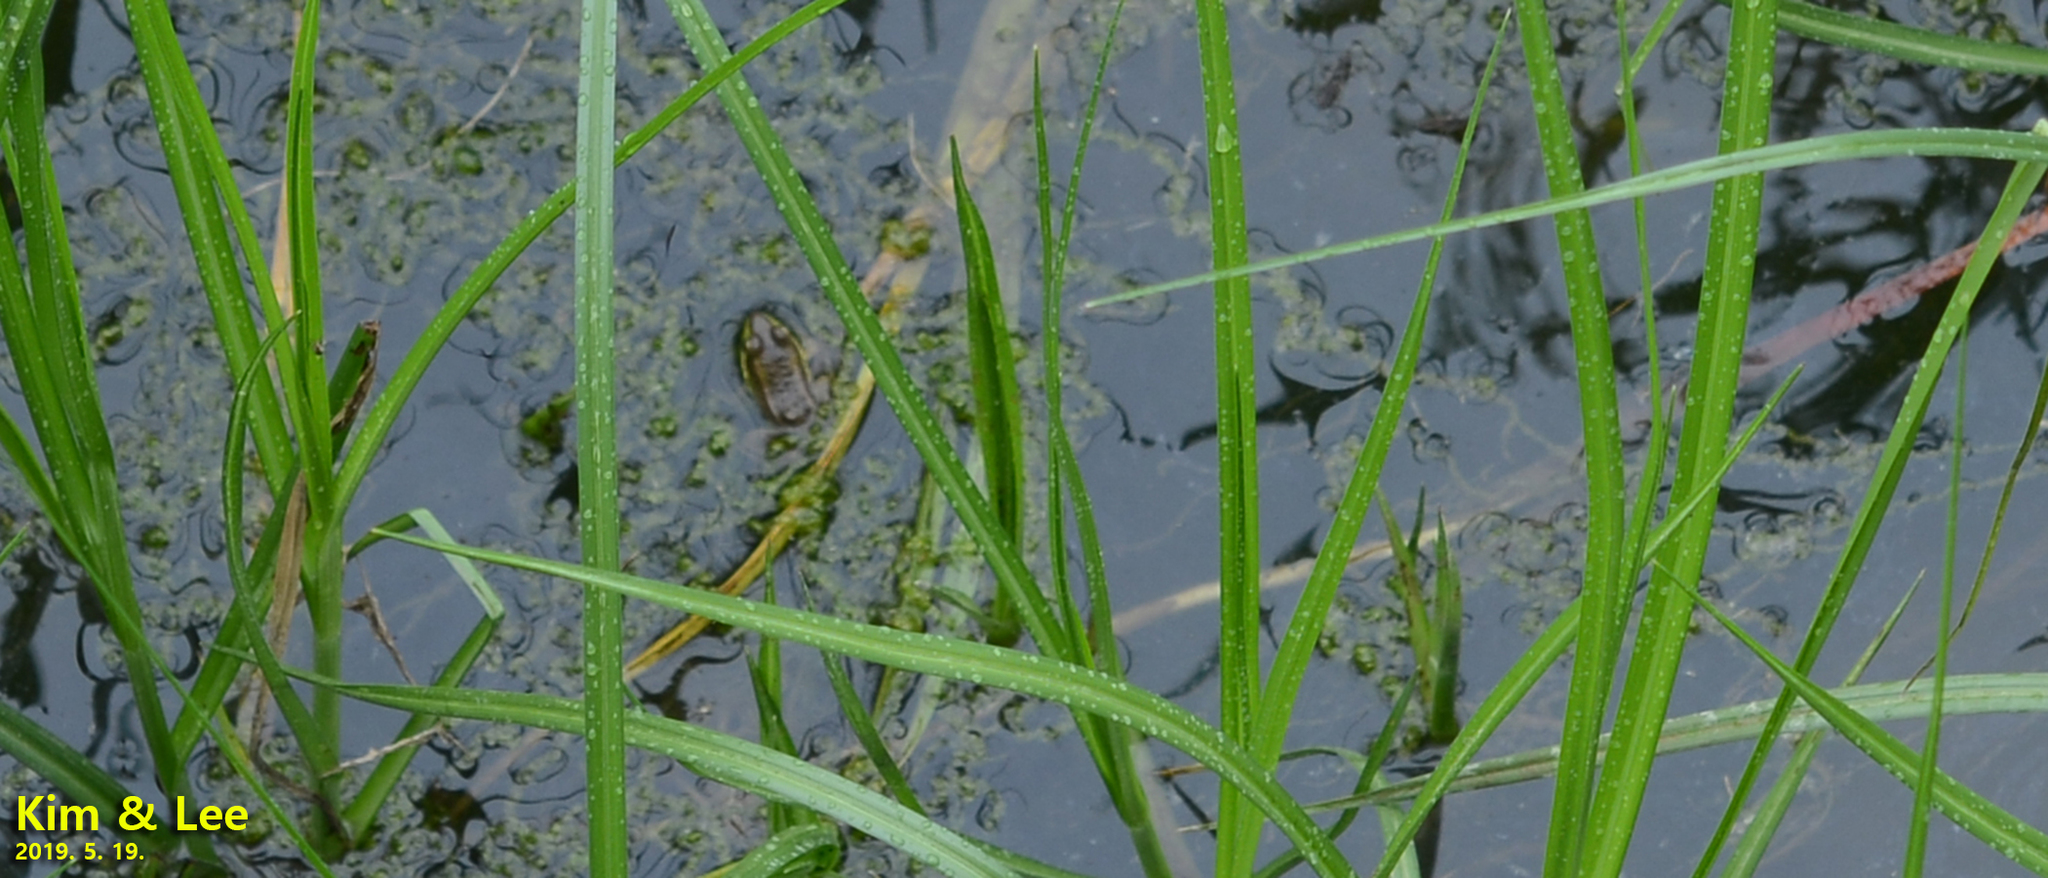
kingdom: Animalia
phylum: Chordata
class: Amphibia
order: Anura
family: Ranidae
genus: Pelophylax
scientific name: Pelophylax chosenicus
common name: Gold-spotted pond frog
